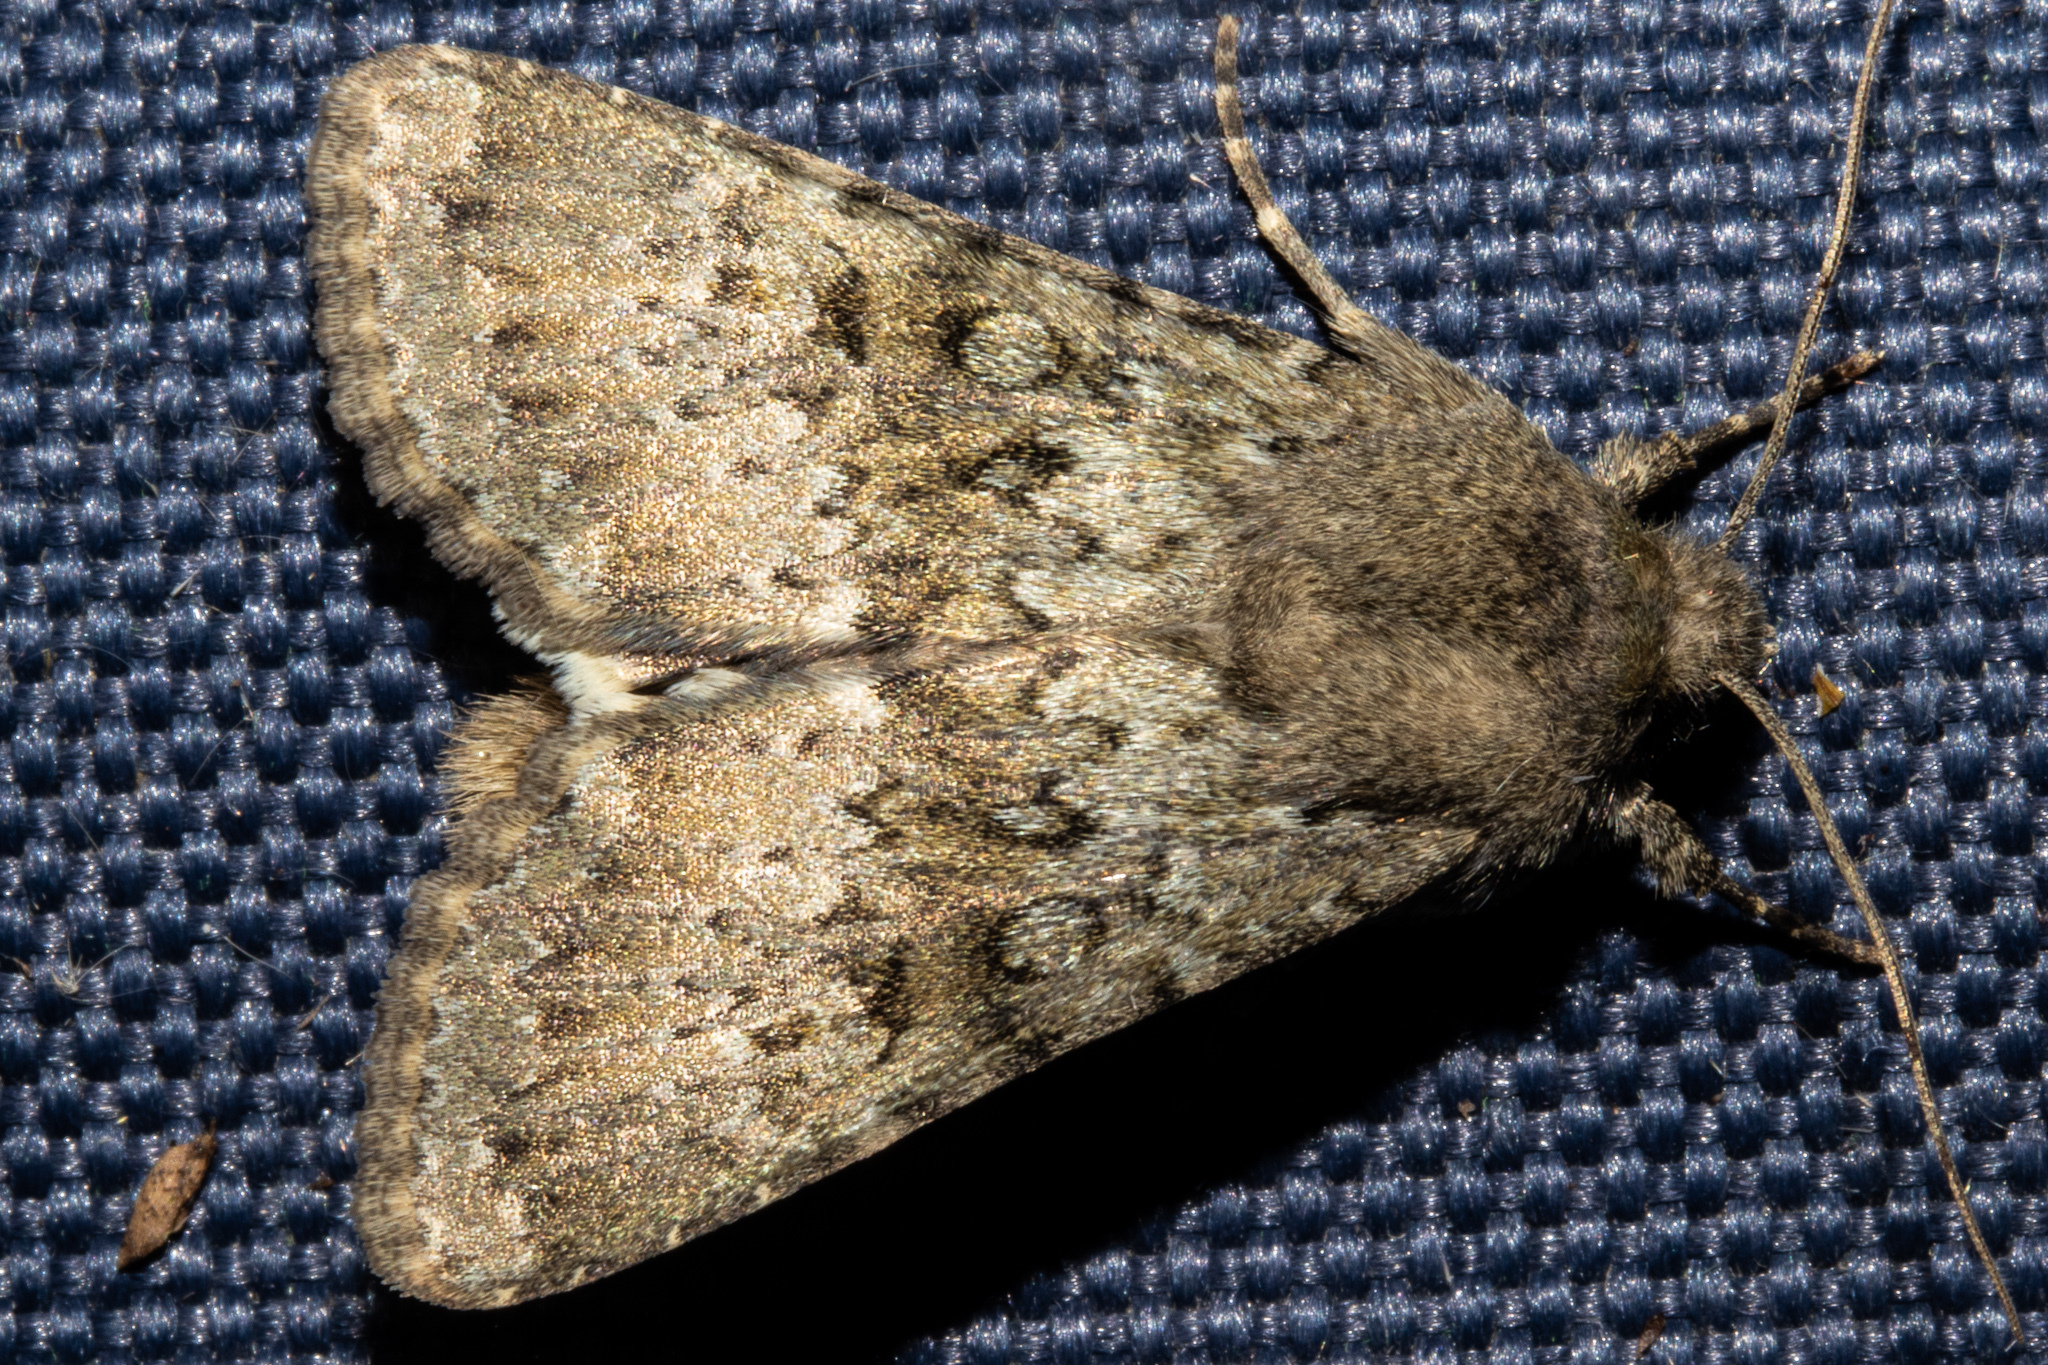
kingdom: Animalia
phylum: Arthropoda
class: Insecta
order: Lepidoptera
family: Noctuidae
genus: Ichneutica
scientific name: Ichneutica moderata
